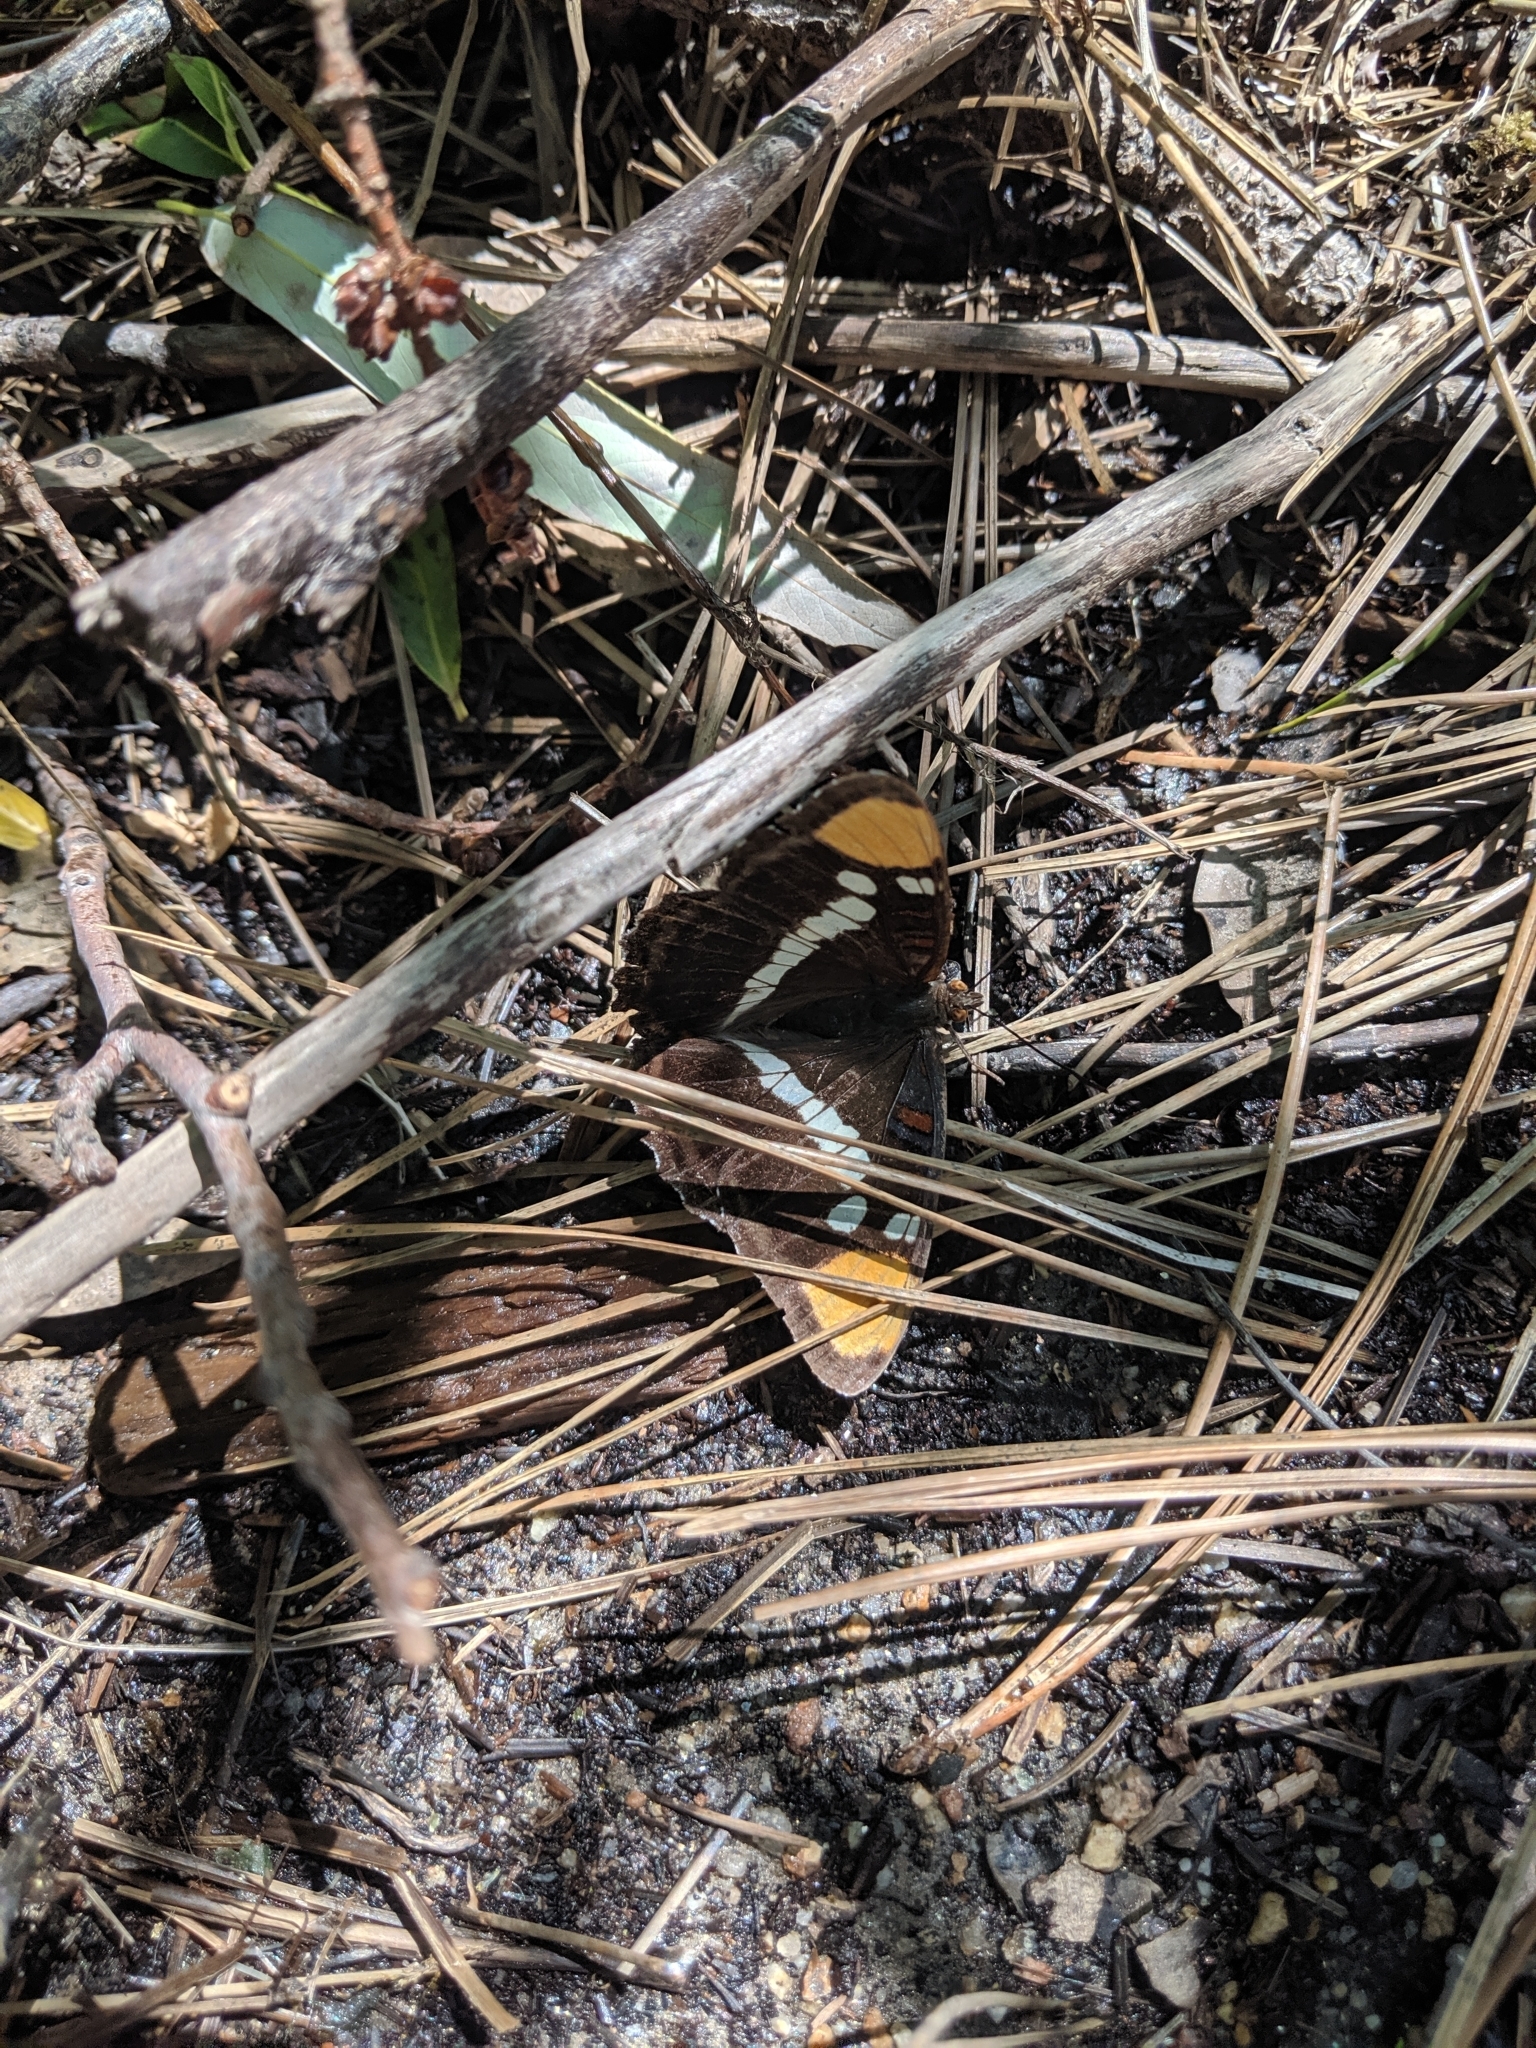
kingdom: Animalia
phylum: Arthropoda
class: Insecta
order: Lepidoptera
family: Nymphalidae
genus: Limenitis
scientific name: Limenitis bredowii
